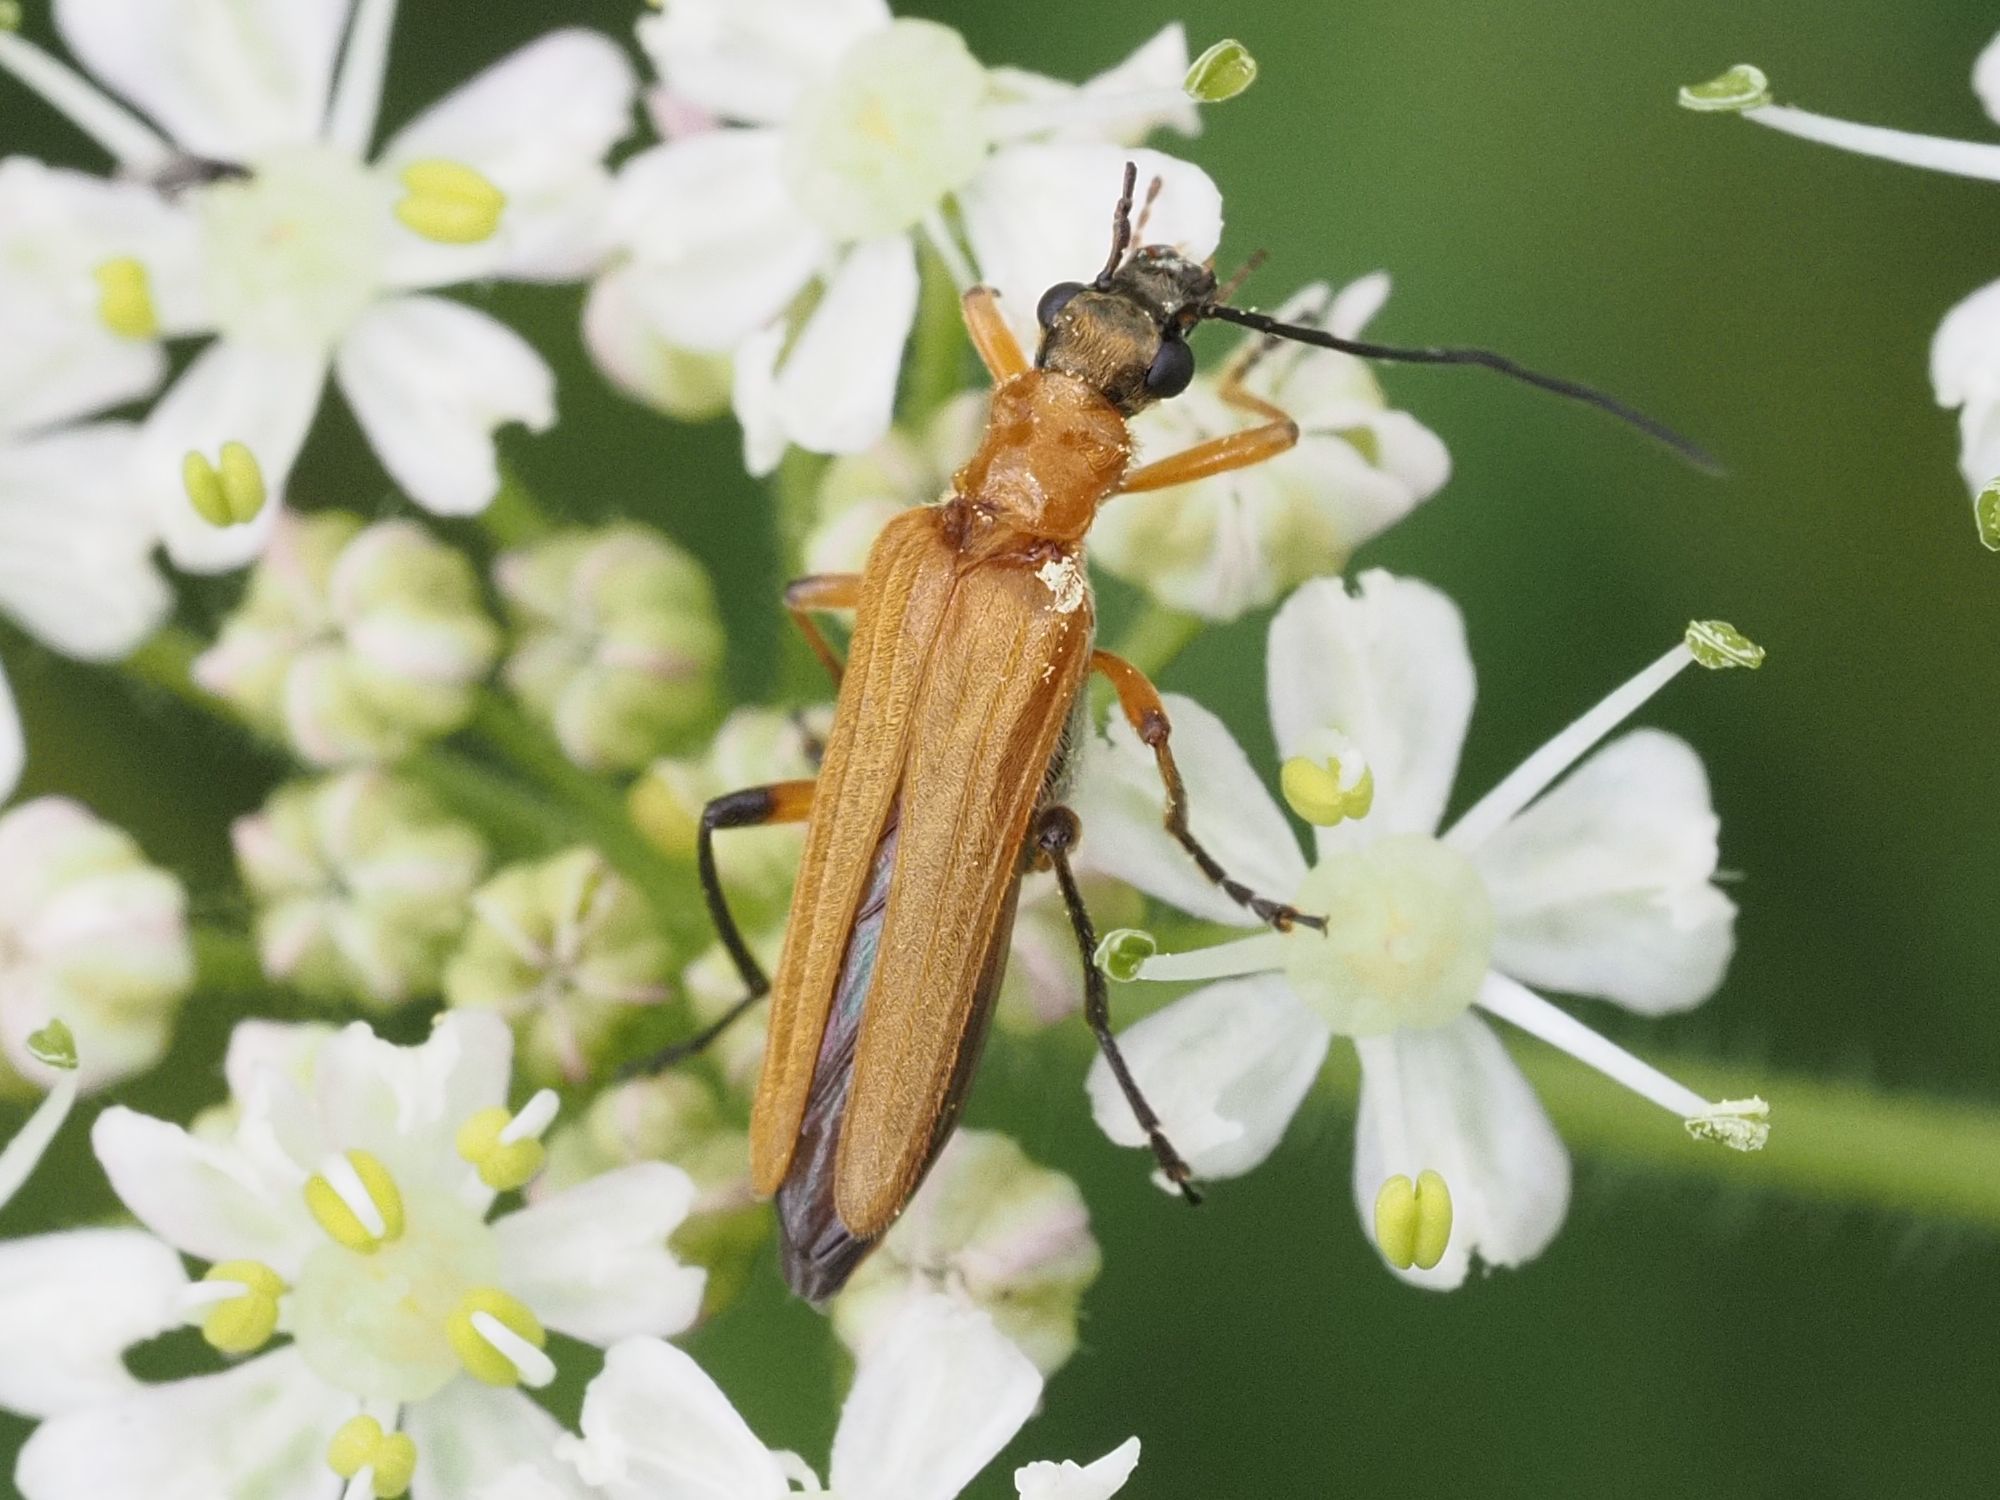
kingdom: Animalia
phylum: Arthropoda
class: Insecta
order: Coleoptera
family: Oedemeridae
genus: Oedemera
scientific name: Oedemera podagrariae
